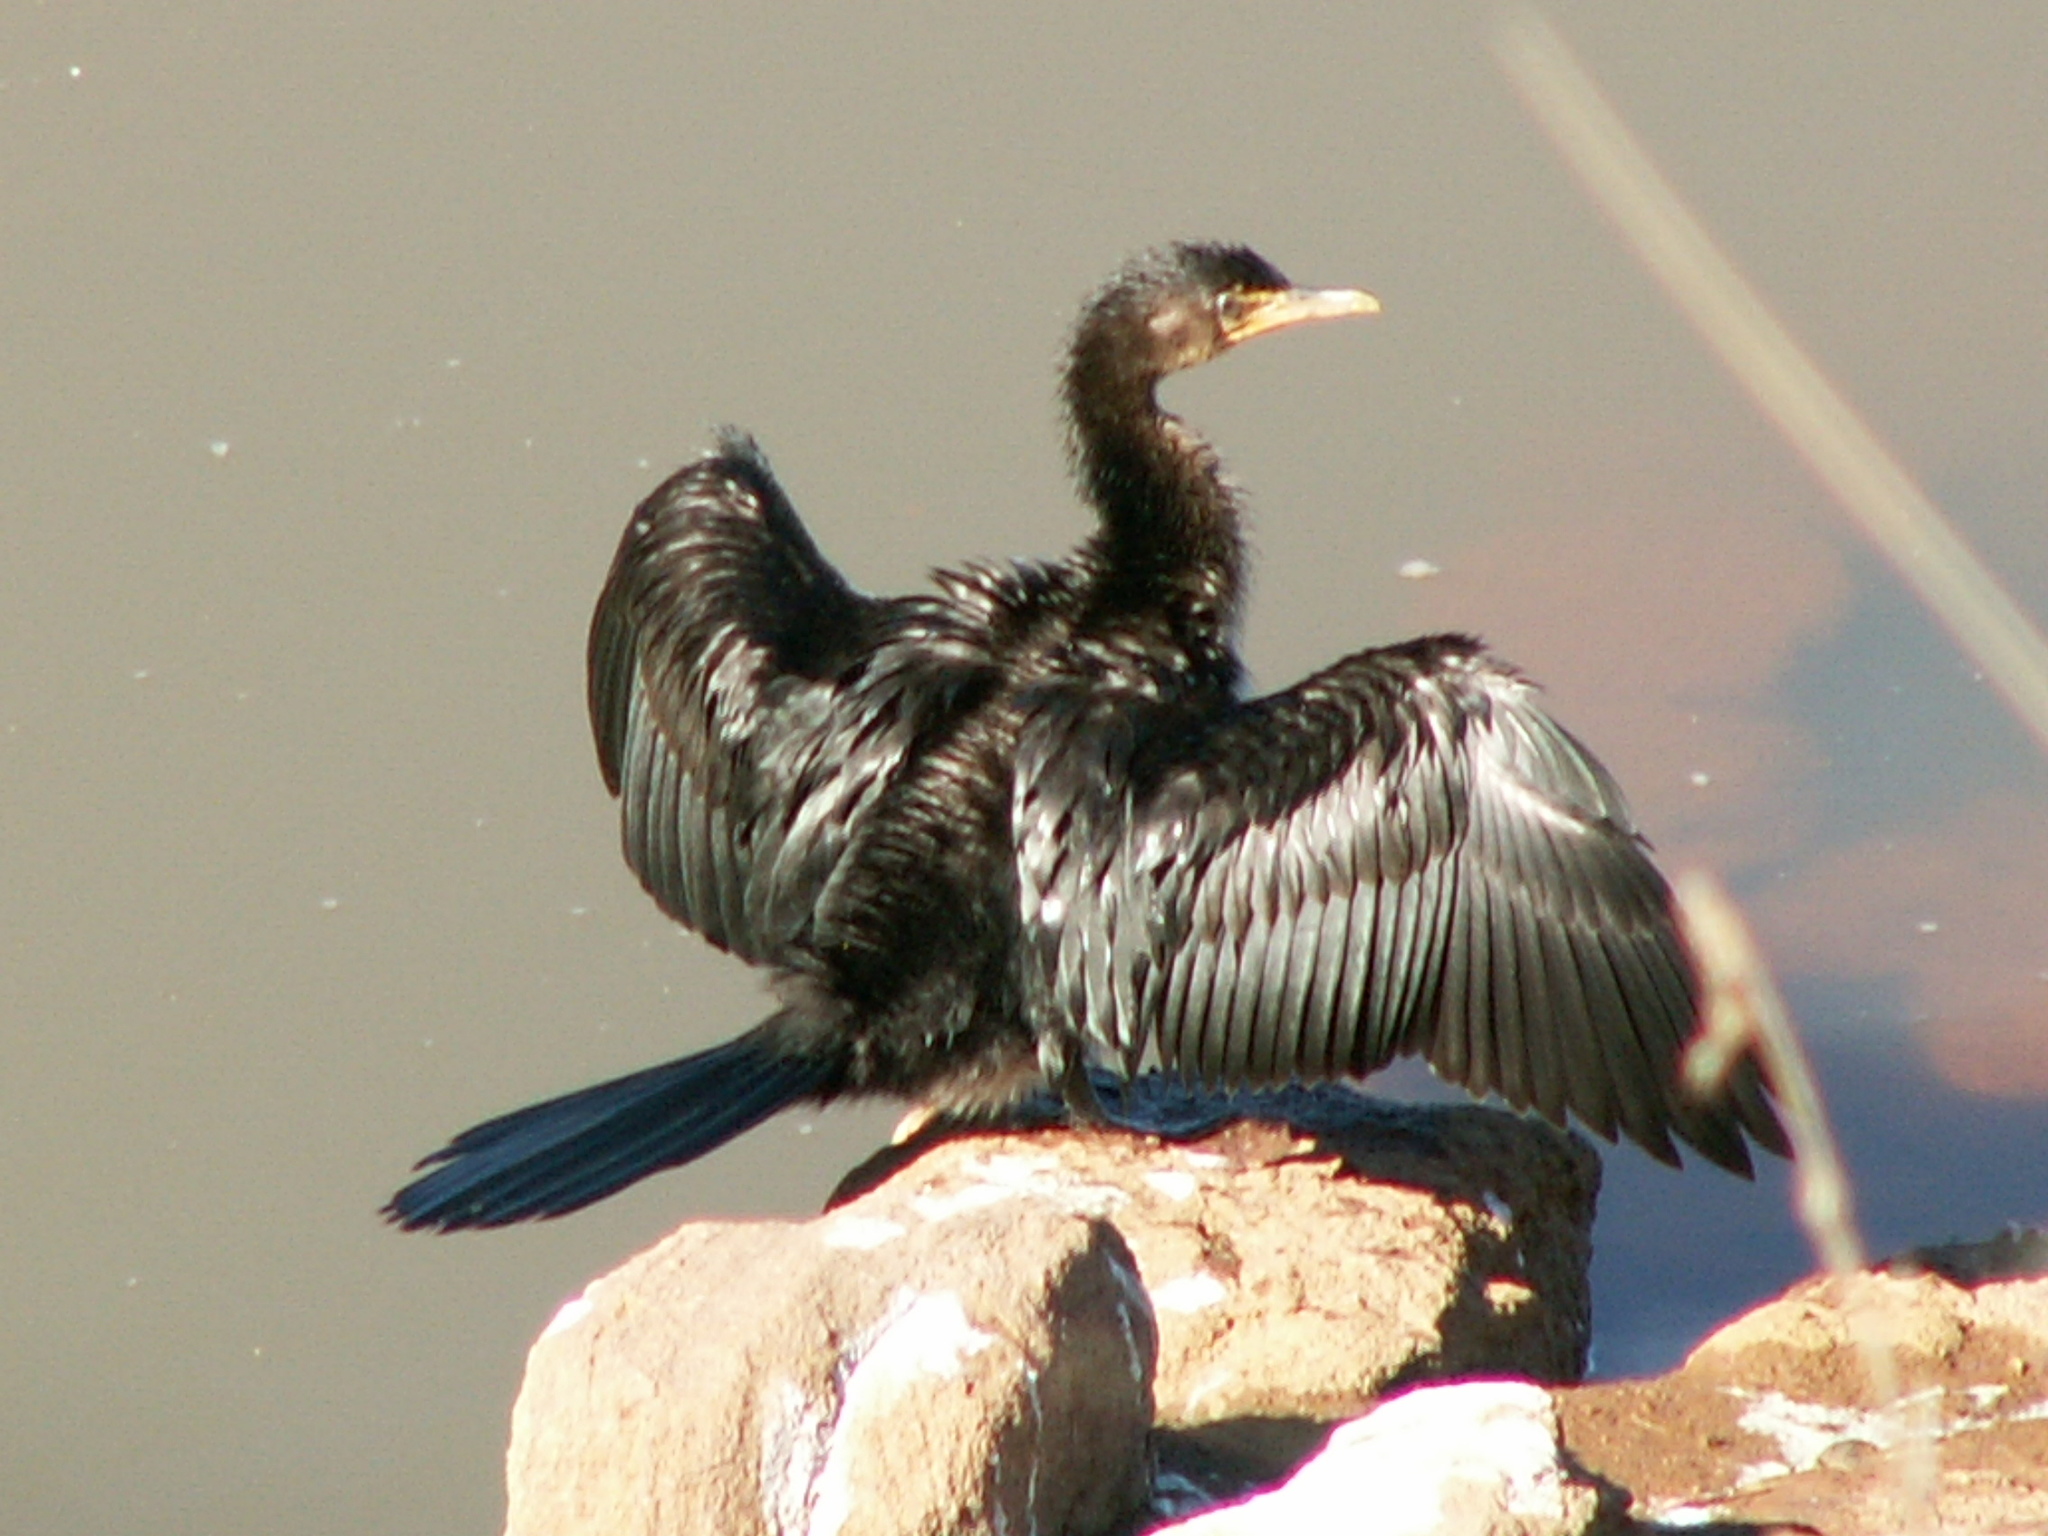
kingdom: Animalia
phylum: Chordata
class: Aves
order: Suliformes
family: Phalacrocoracidae
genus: Microcarbo
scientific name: Microcarbo africanus
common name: Long-tailed cormorant
